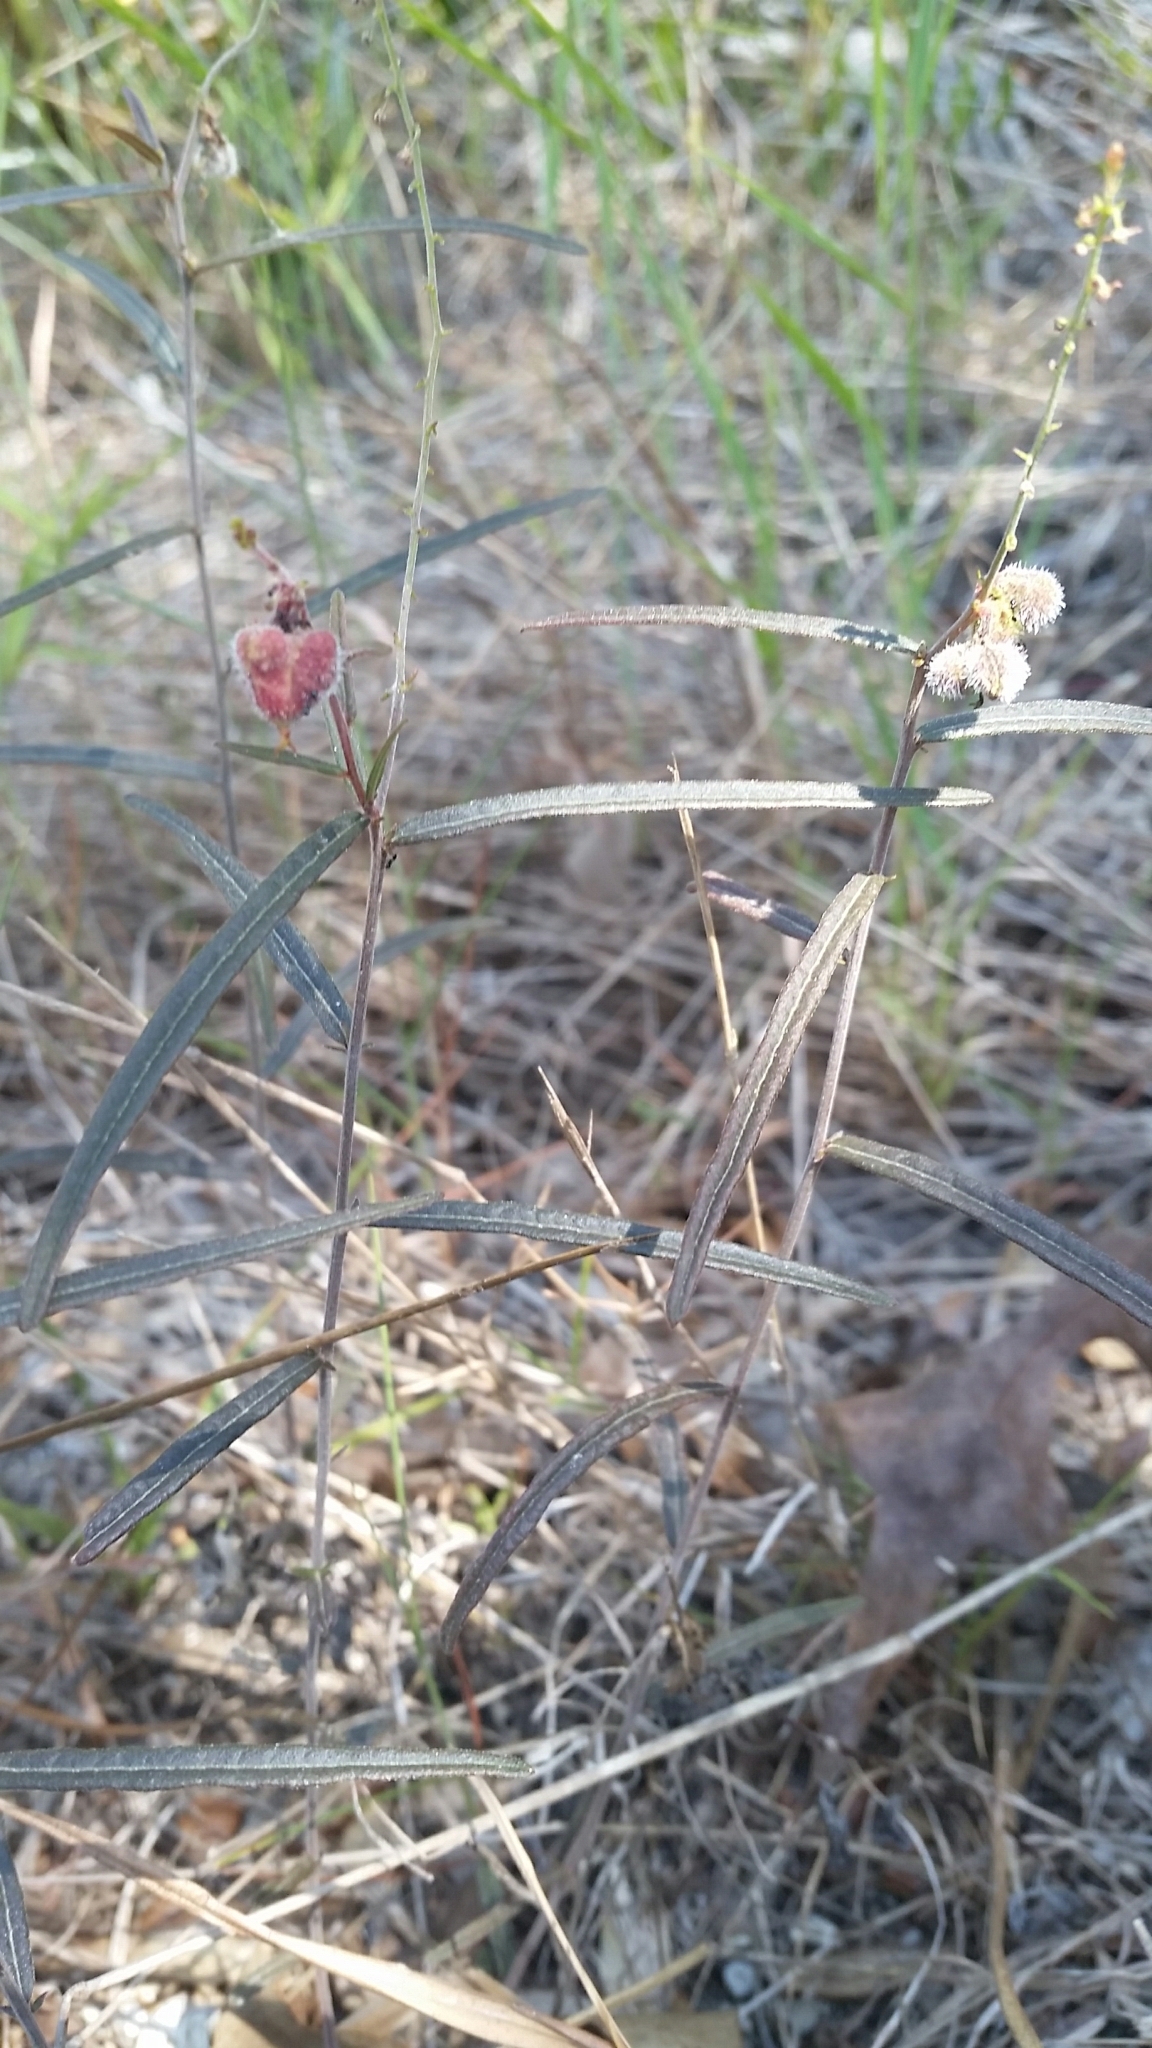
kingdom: Plantae
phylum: Tracheophyta
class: Magnoliopsida
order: Malpighiales
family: Euphorbiaceae
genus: Tragia
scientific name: Tragia urens
